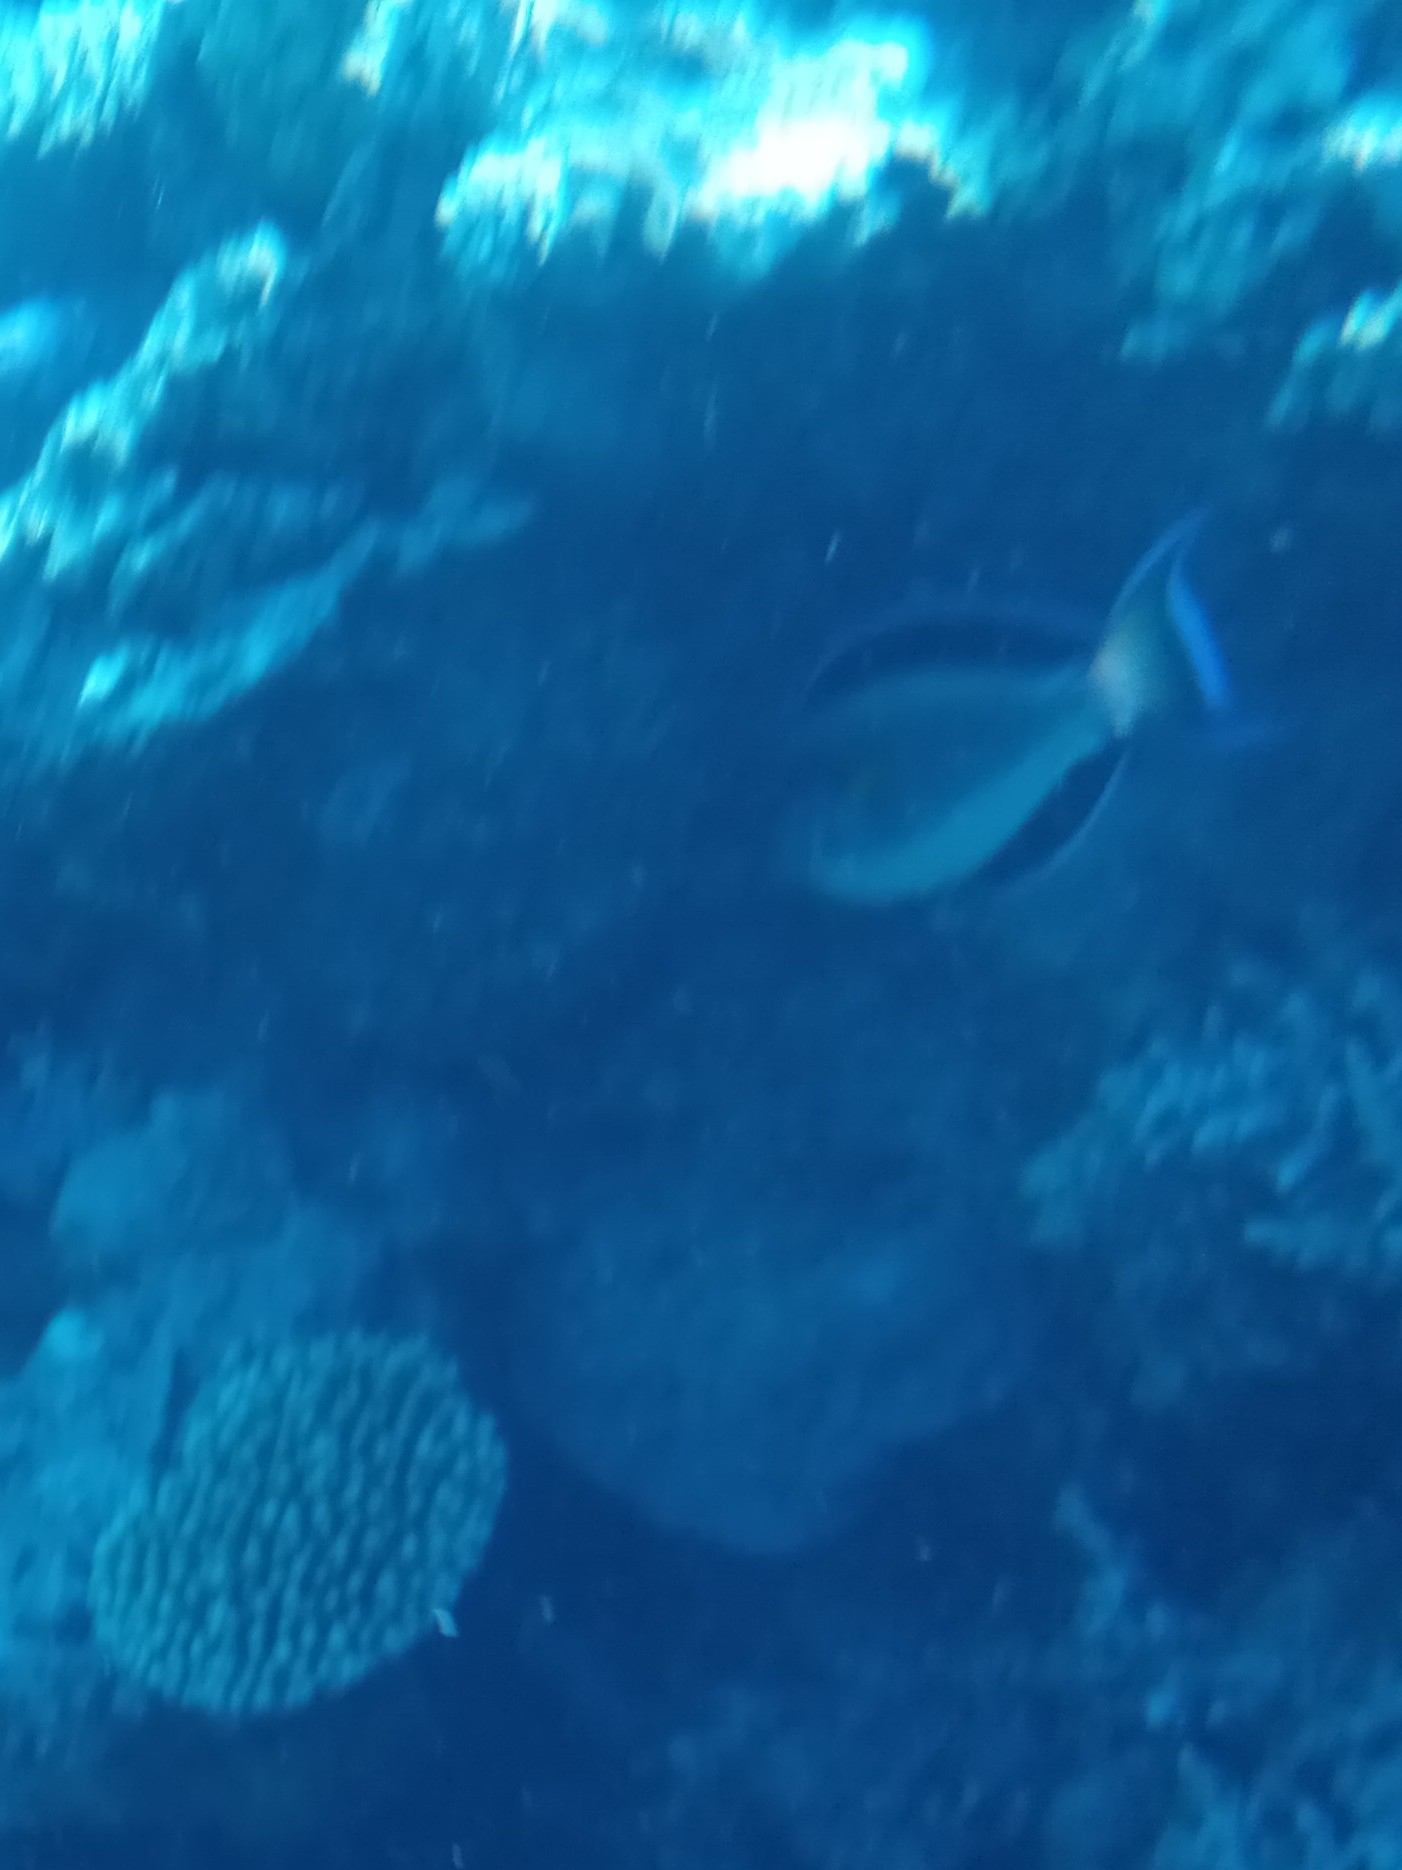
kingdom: Animalia
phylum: Chordata
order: Perciformes
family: Acanthuridae
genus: Acanthurus
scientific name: Acanthurus sohal
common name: Red sea surgeonfish
